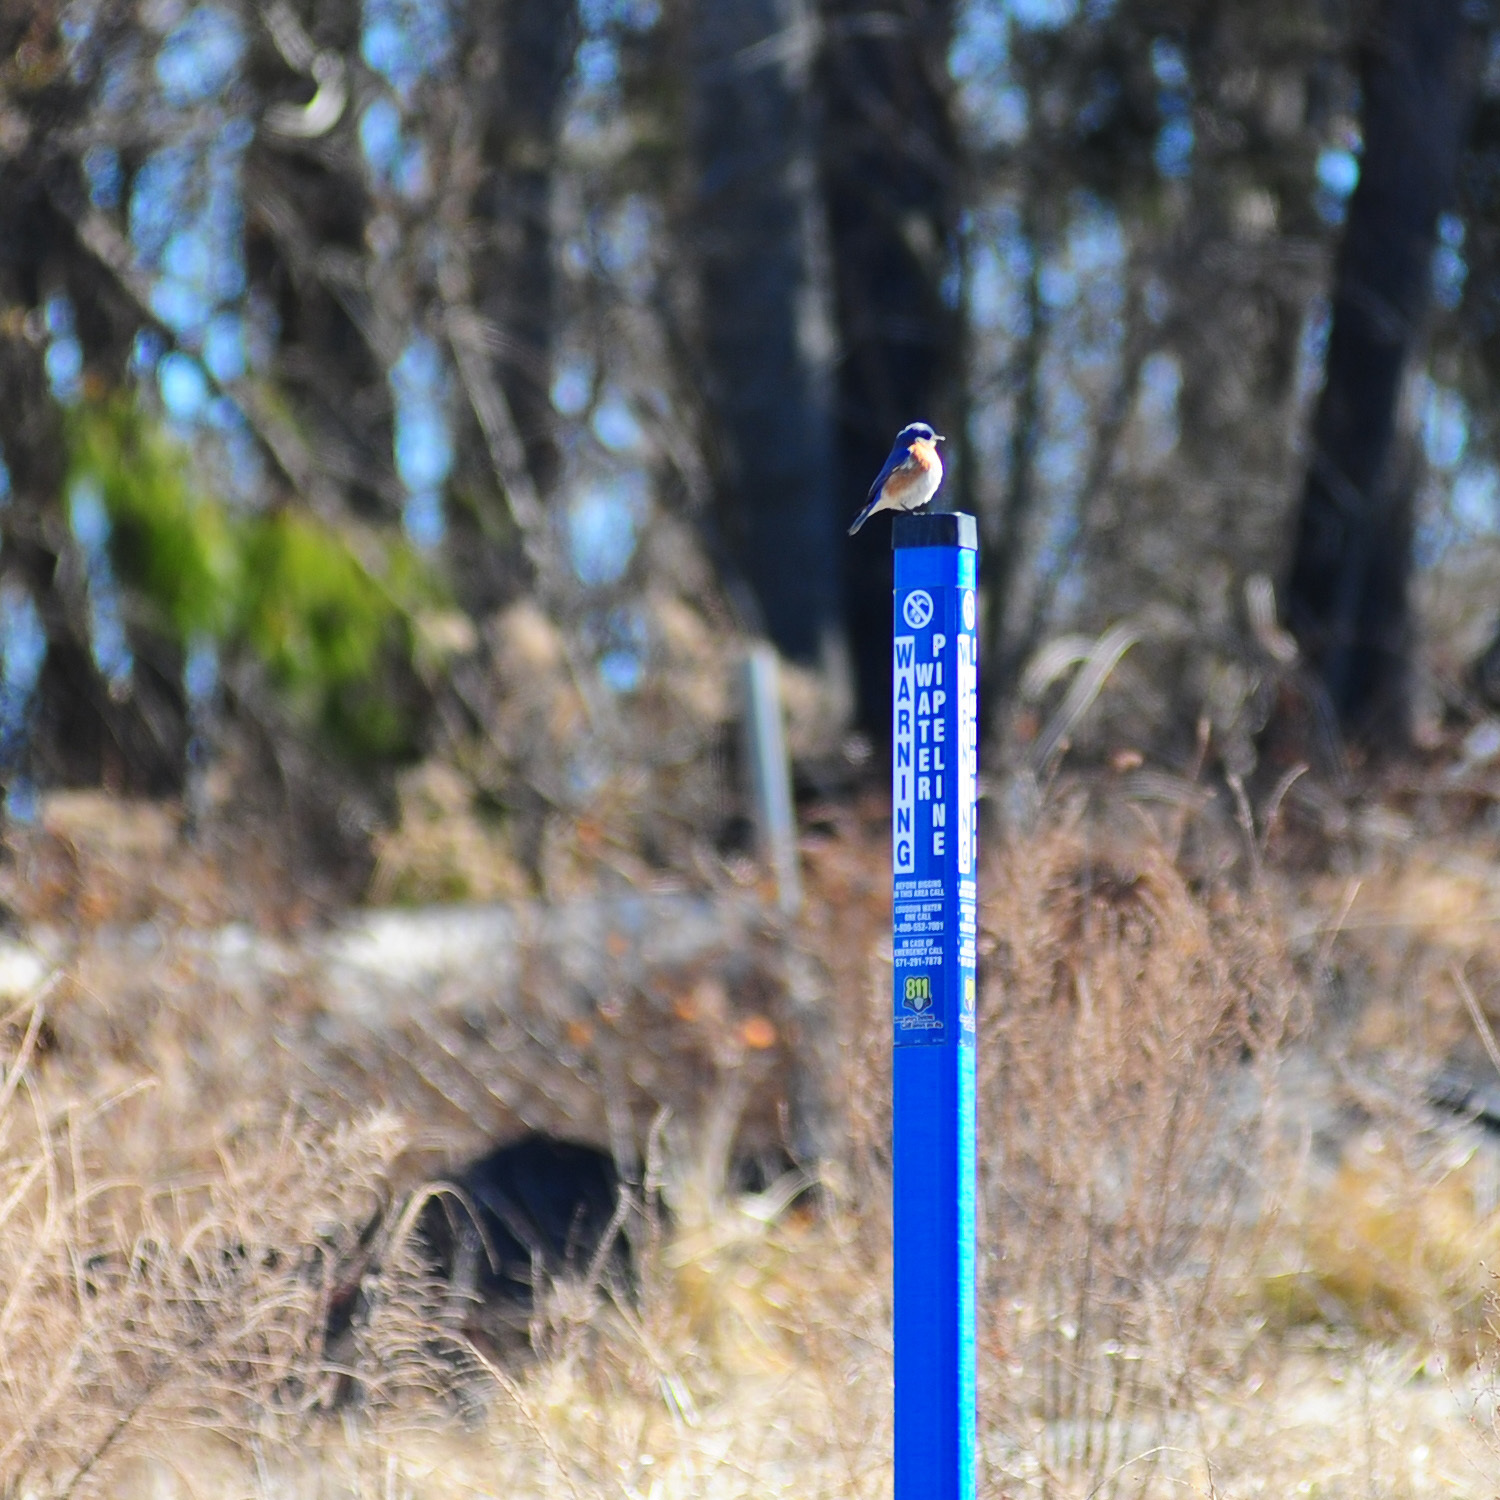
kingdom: Animalia
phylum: Chordata
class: Aves
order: Passeriformes
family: Turdidae
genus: Sialia
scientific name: Sialia sialis
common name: Eastern bluebird
